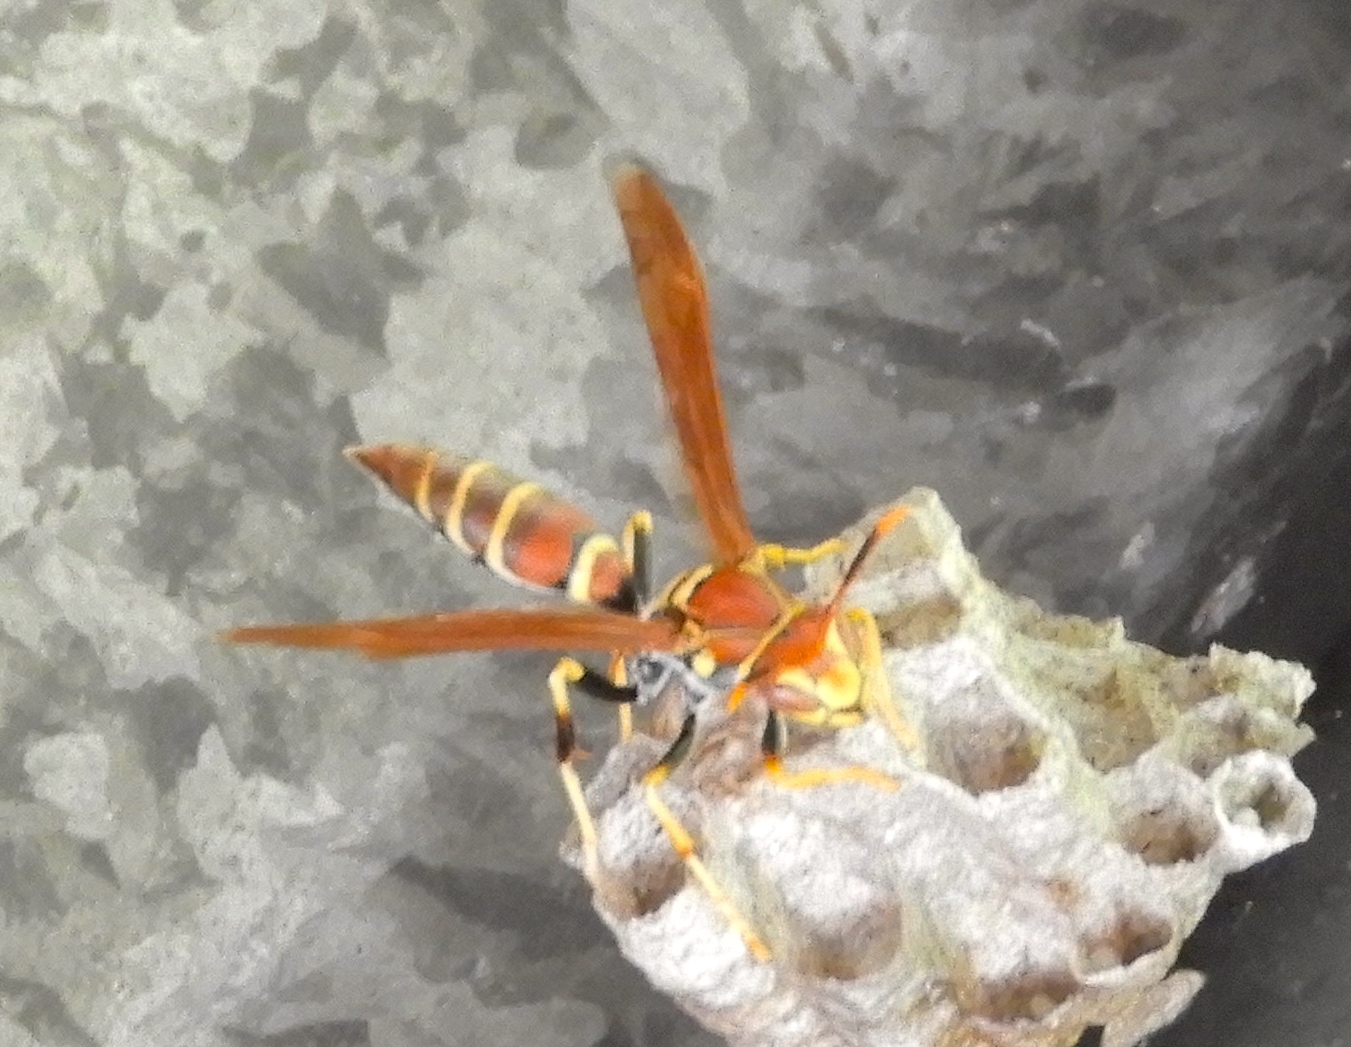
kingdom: Animalia
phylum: Arthropoda
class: Insecta
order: Hymenoptera
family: Eumenidae
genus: Polistes
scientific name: Polistes instabilis
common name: Unstable paper wasp
